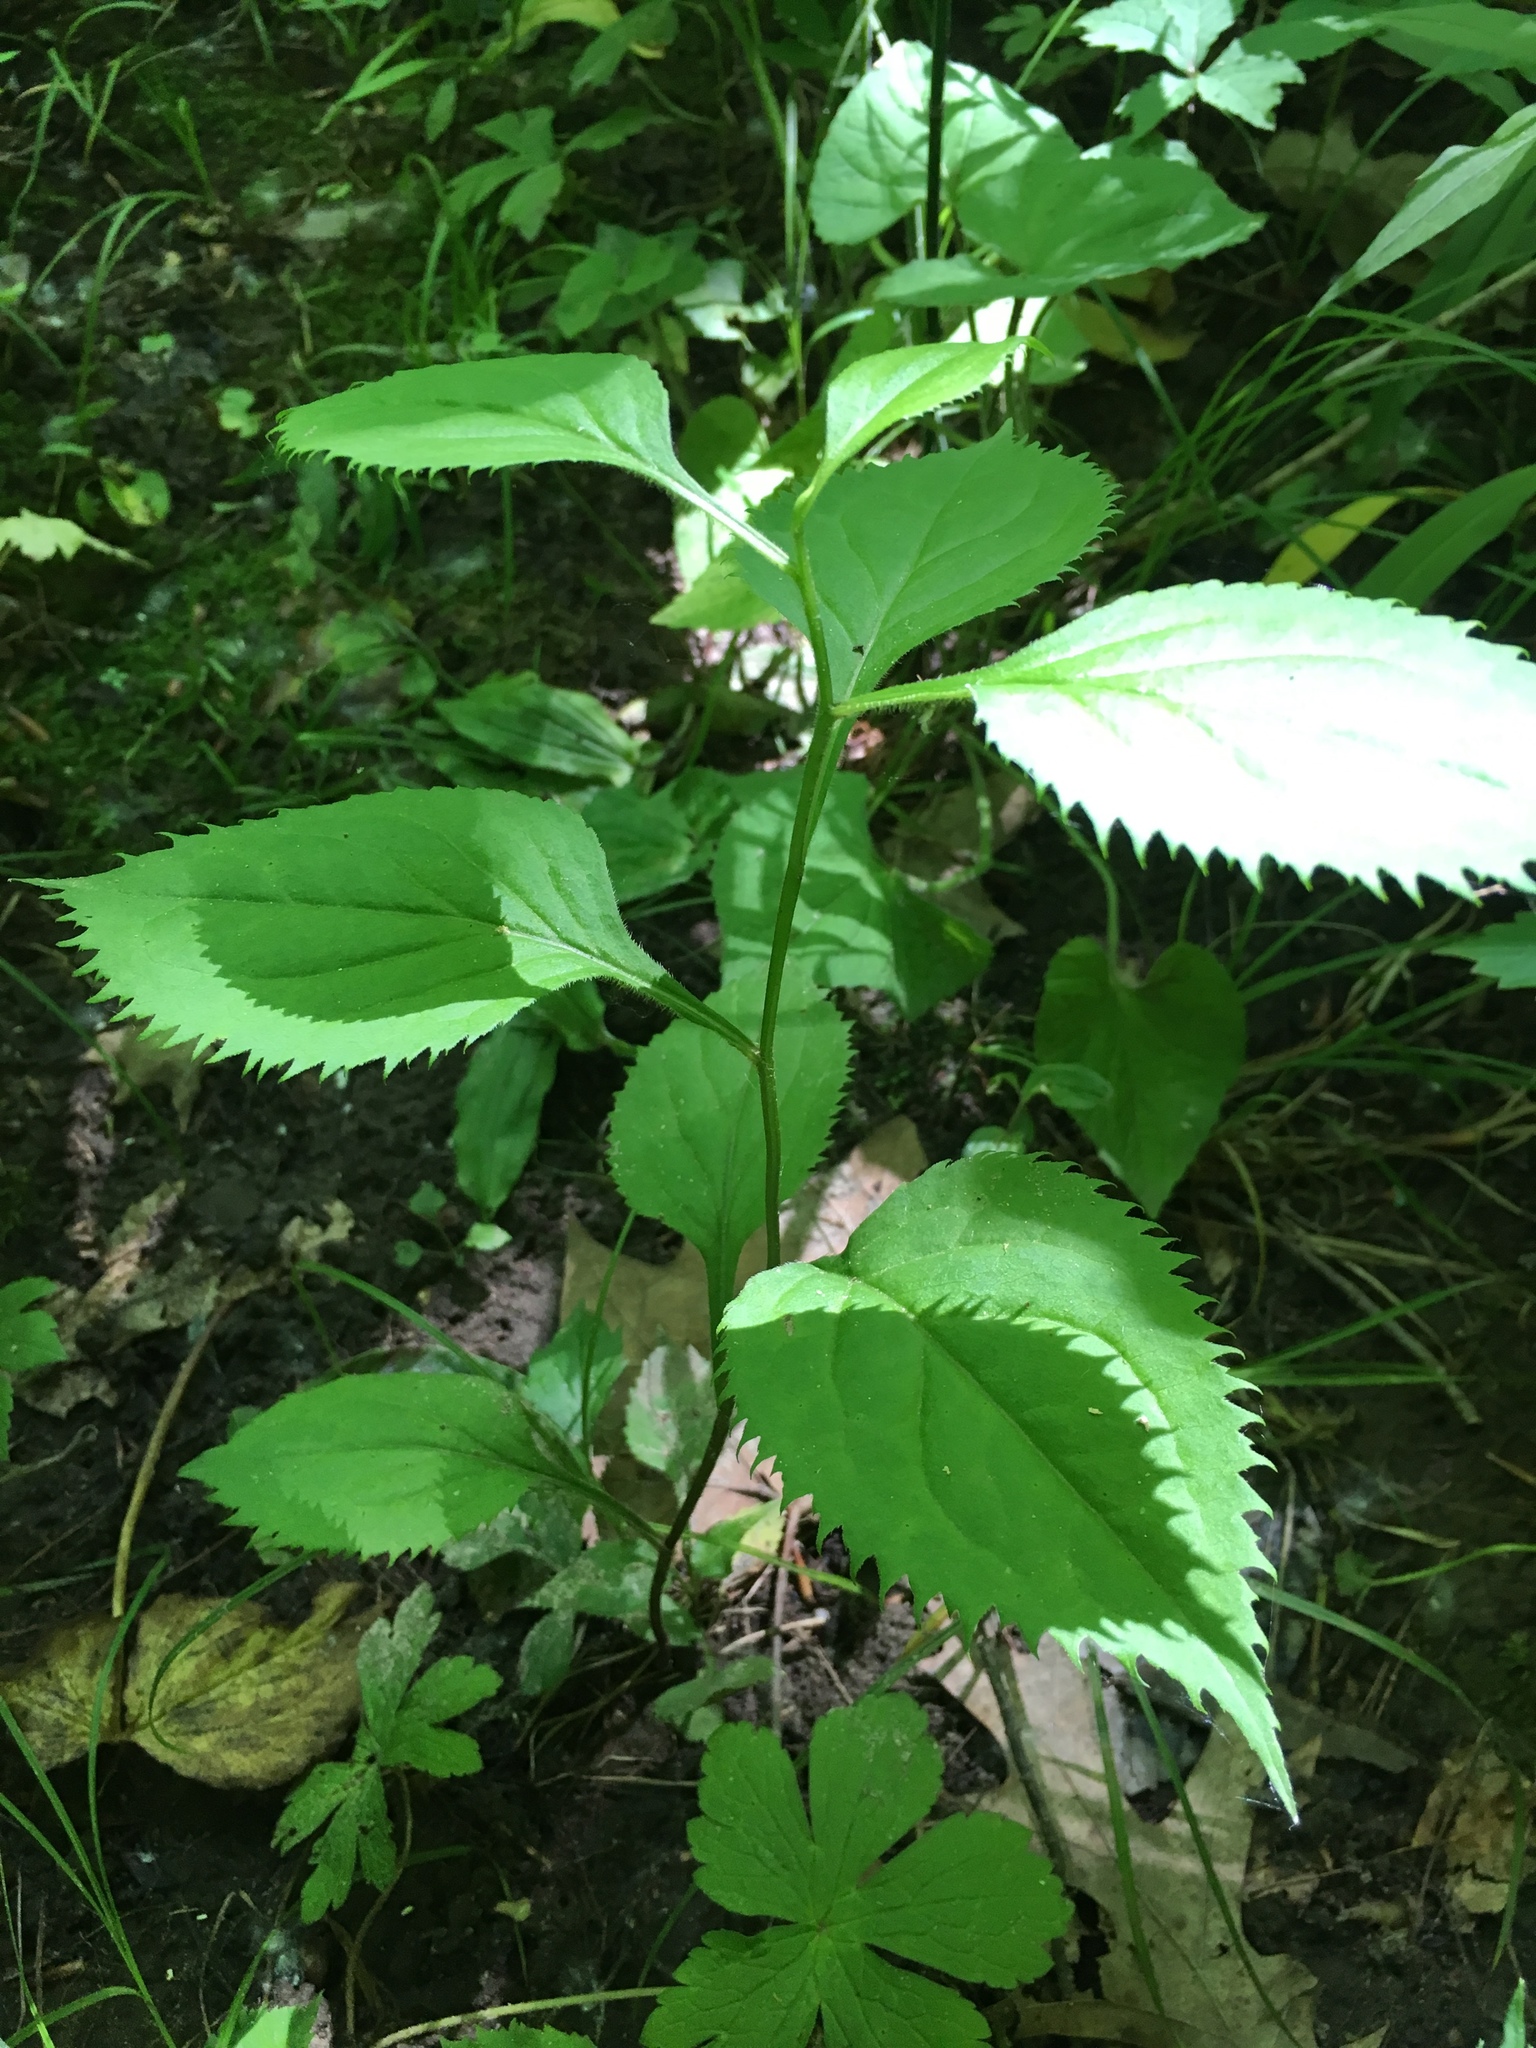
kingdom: Plantae
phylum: Tracheophyta
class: Magnoliopsida
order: Asterales
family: Asteraceae
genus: Solidago
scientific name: Solidago flexicaulis
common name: Zig-zag goldenrod
